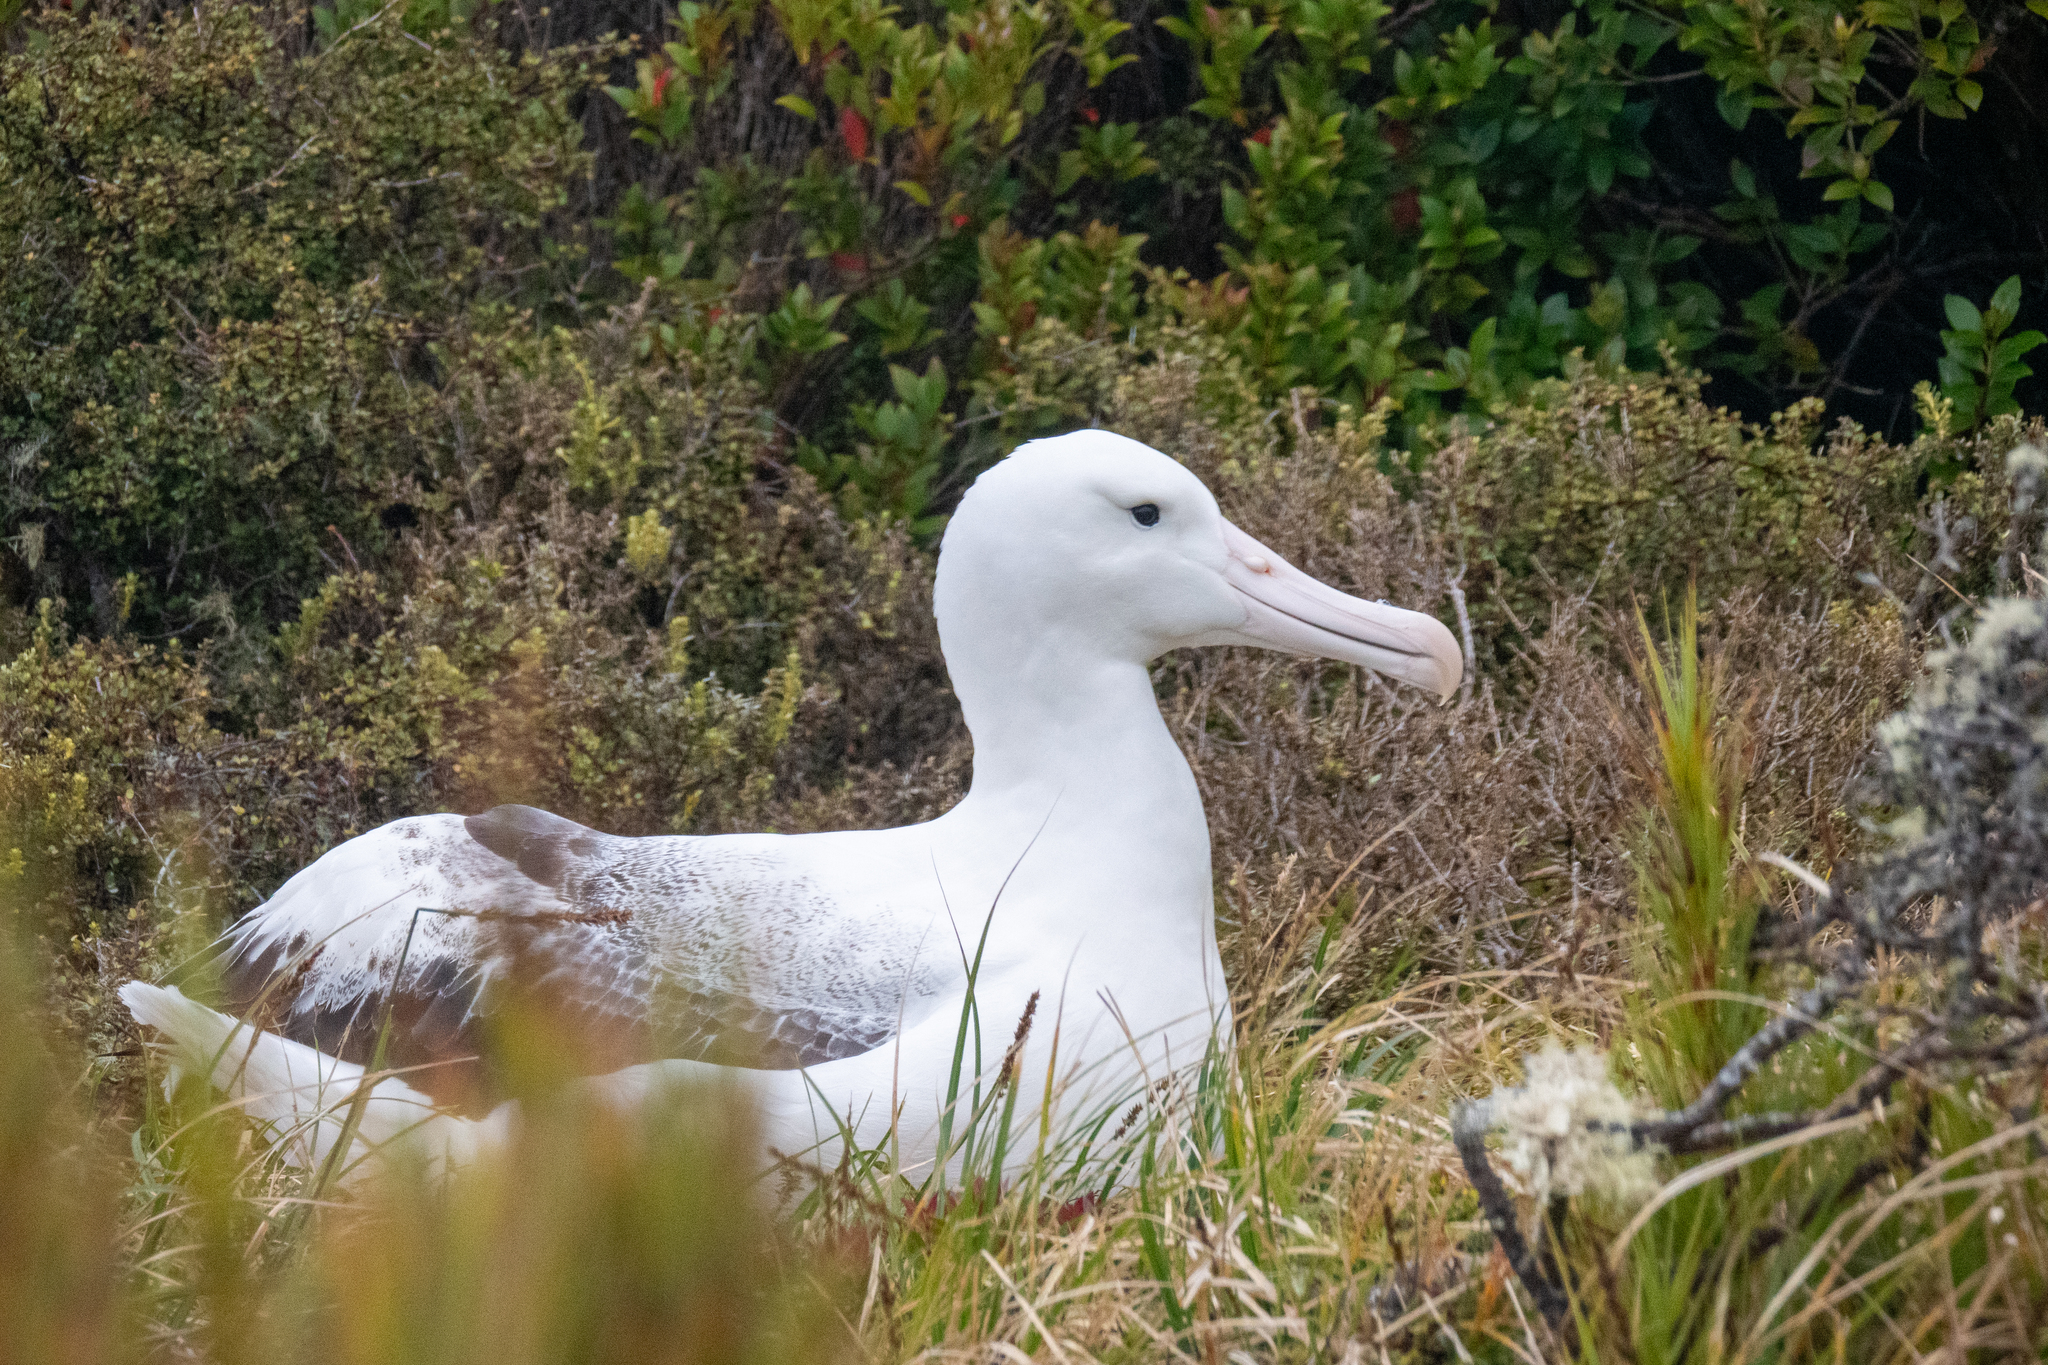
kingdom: Animalia
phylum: Chordata
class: Aves
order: Procellariiformes
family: Diomedeidae
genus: Diomedea
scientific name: Diomedea epomophora
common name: Southern royal albatross
